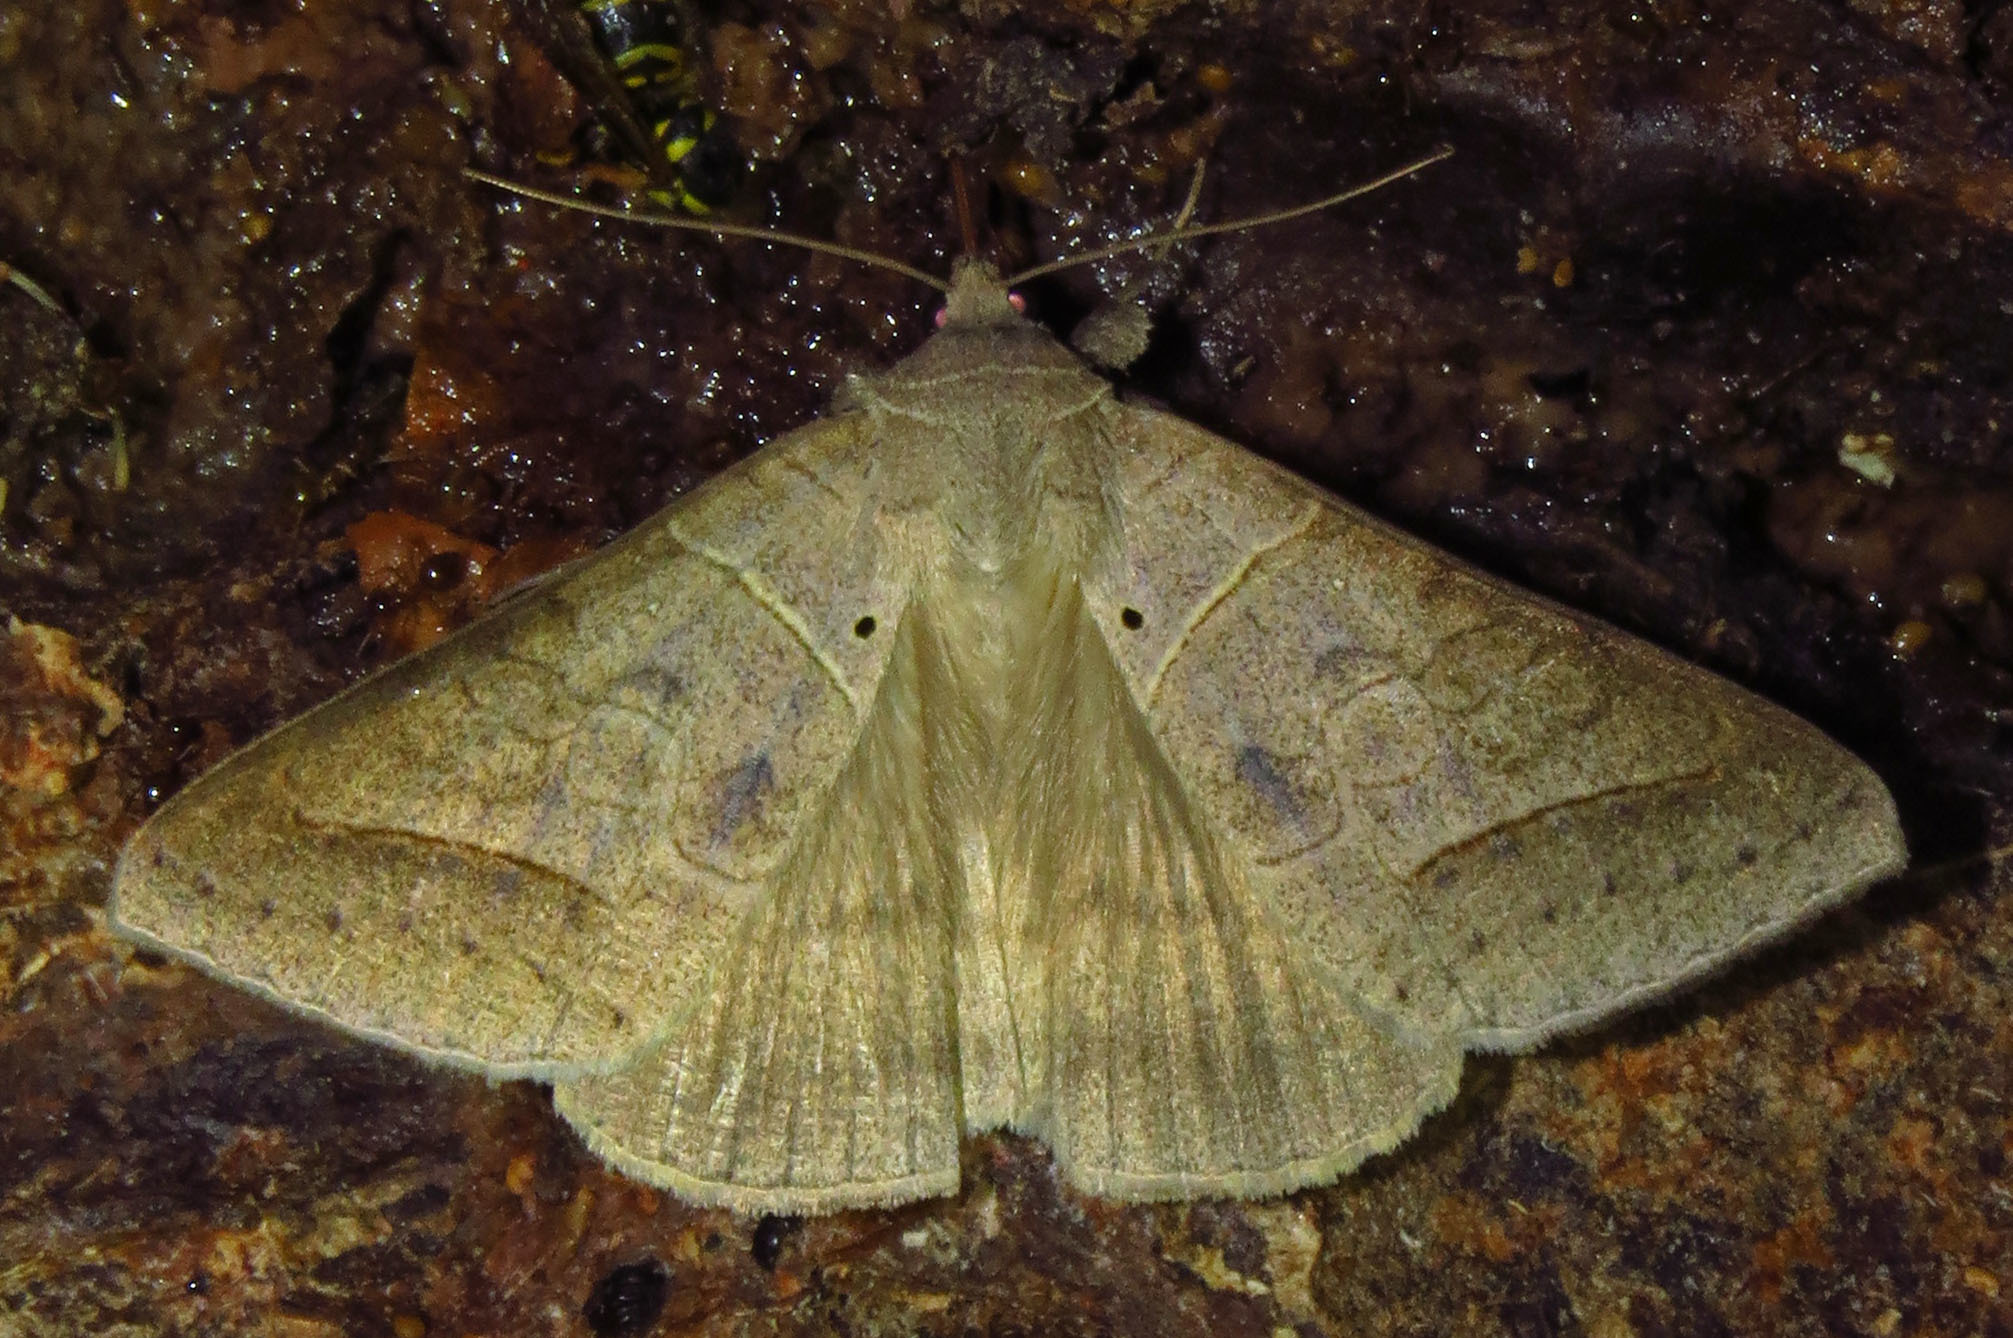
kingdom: Animalia
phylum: Arthropoda
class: Insecta
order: Lepidoptera
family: Erebidae
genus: Mocis
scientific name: Mocis marcida
